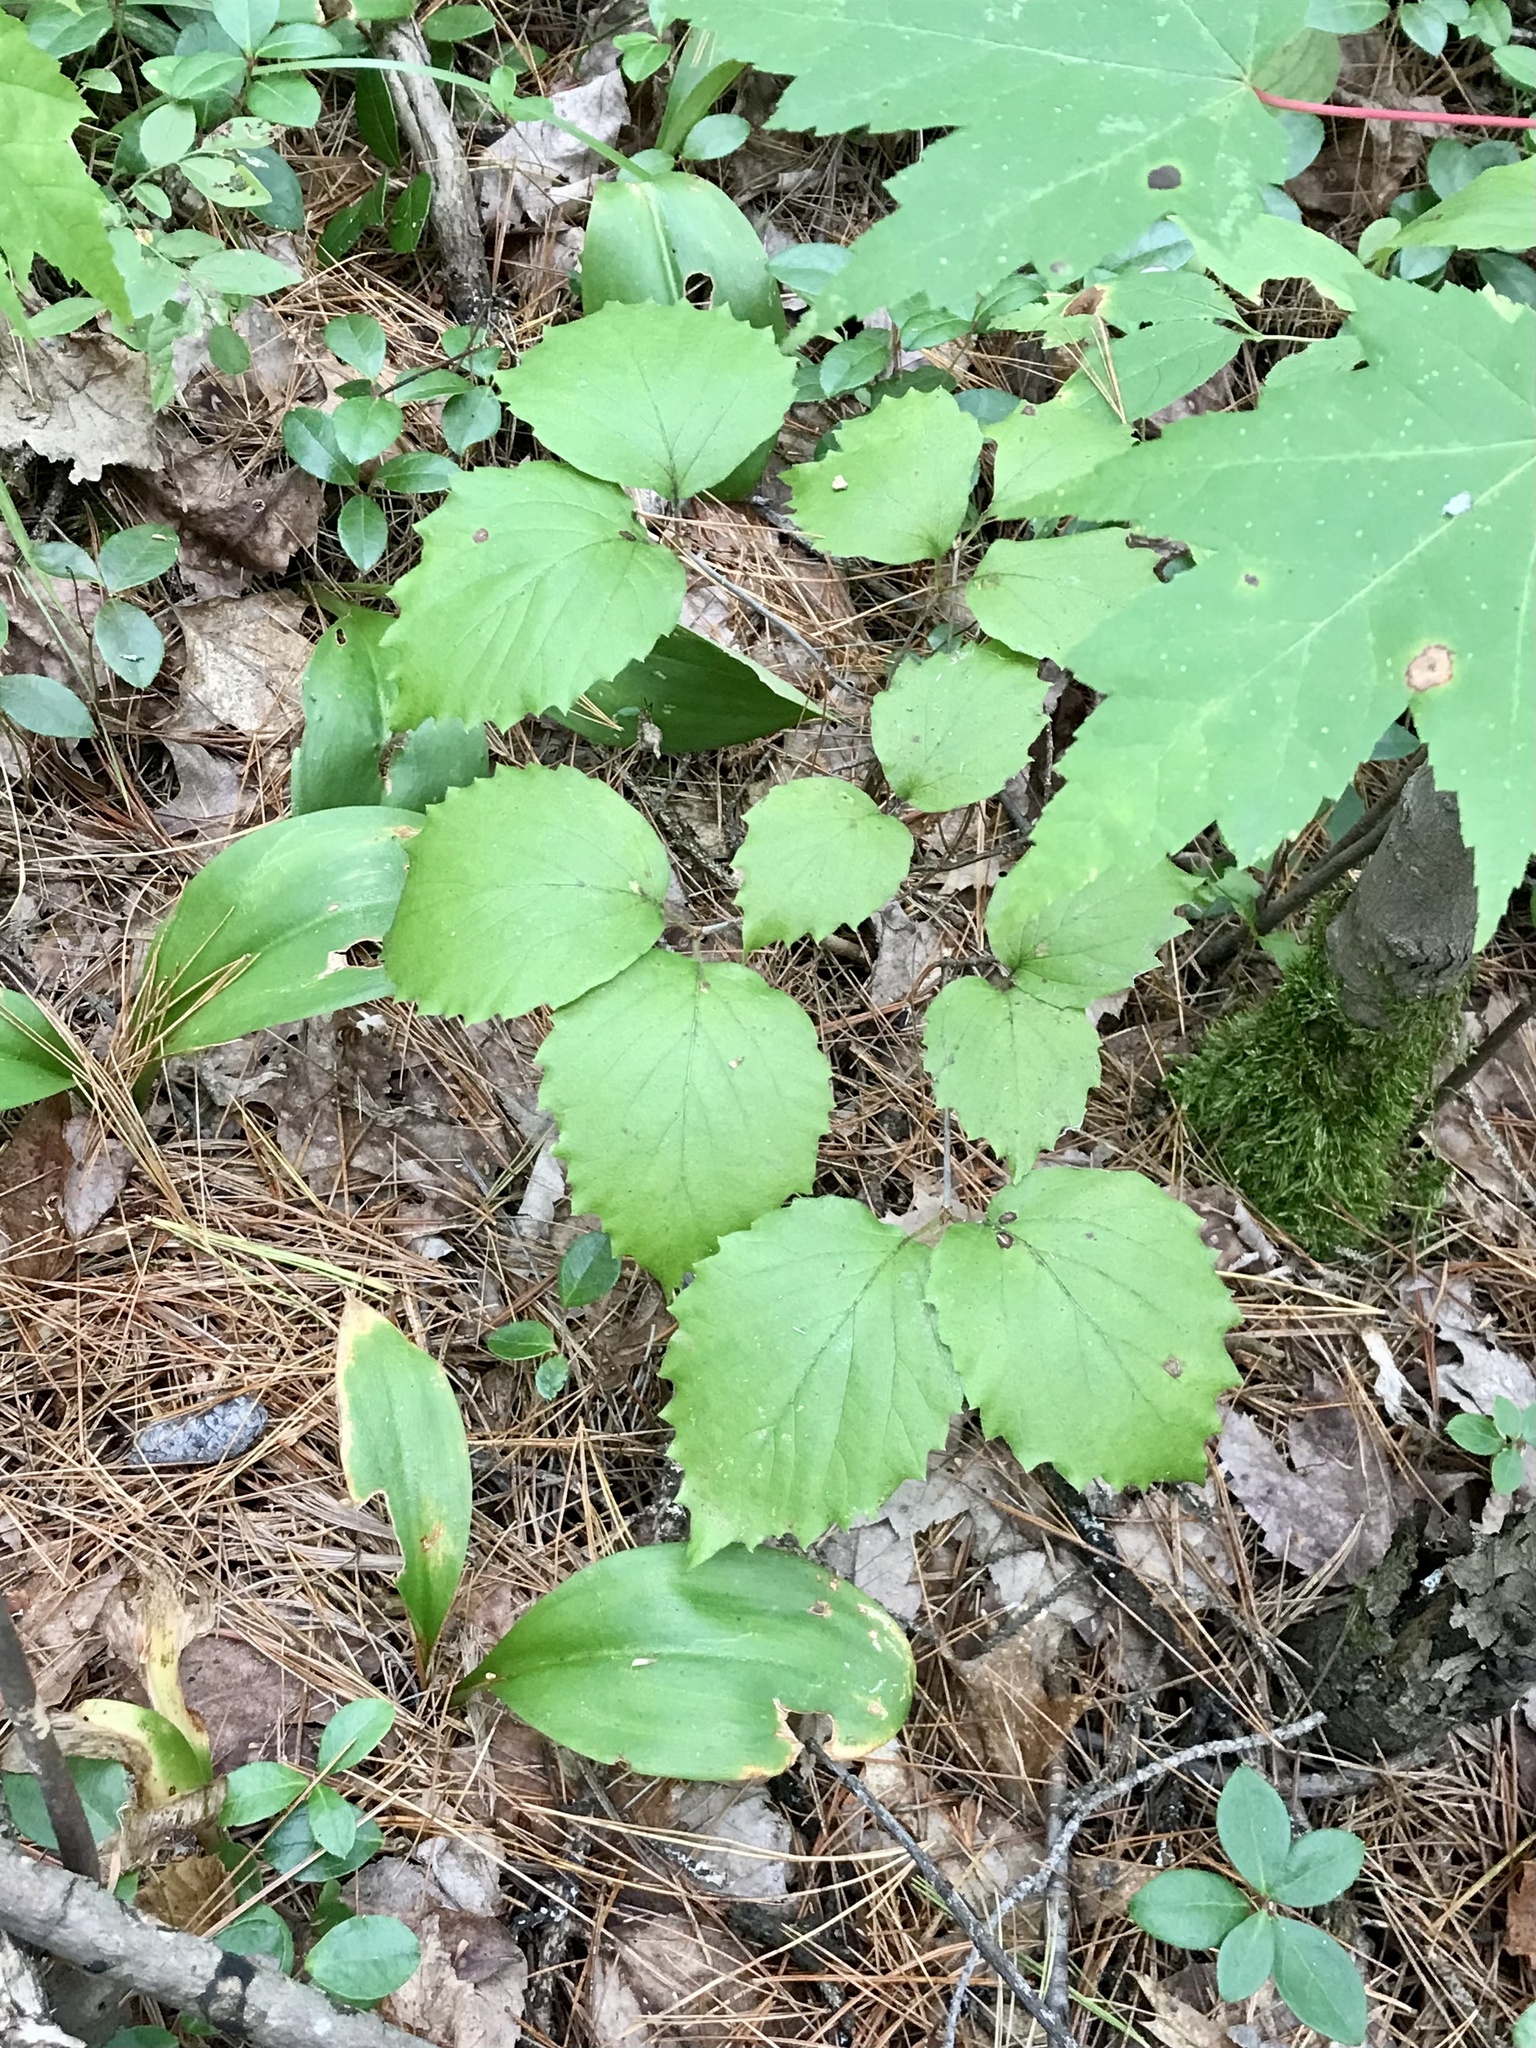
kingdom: Plantae
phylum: Tracheophyta
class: Magnoliopsida
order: Dipsacales
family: Viburnaceae
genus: Viburnum
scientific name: Viburnum rafinesqueanum
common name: Downy arrow-wood
